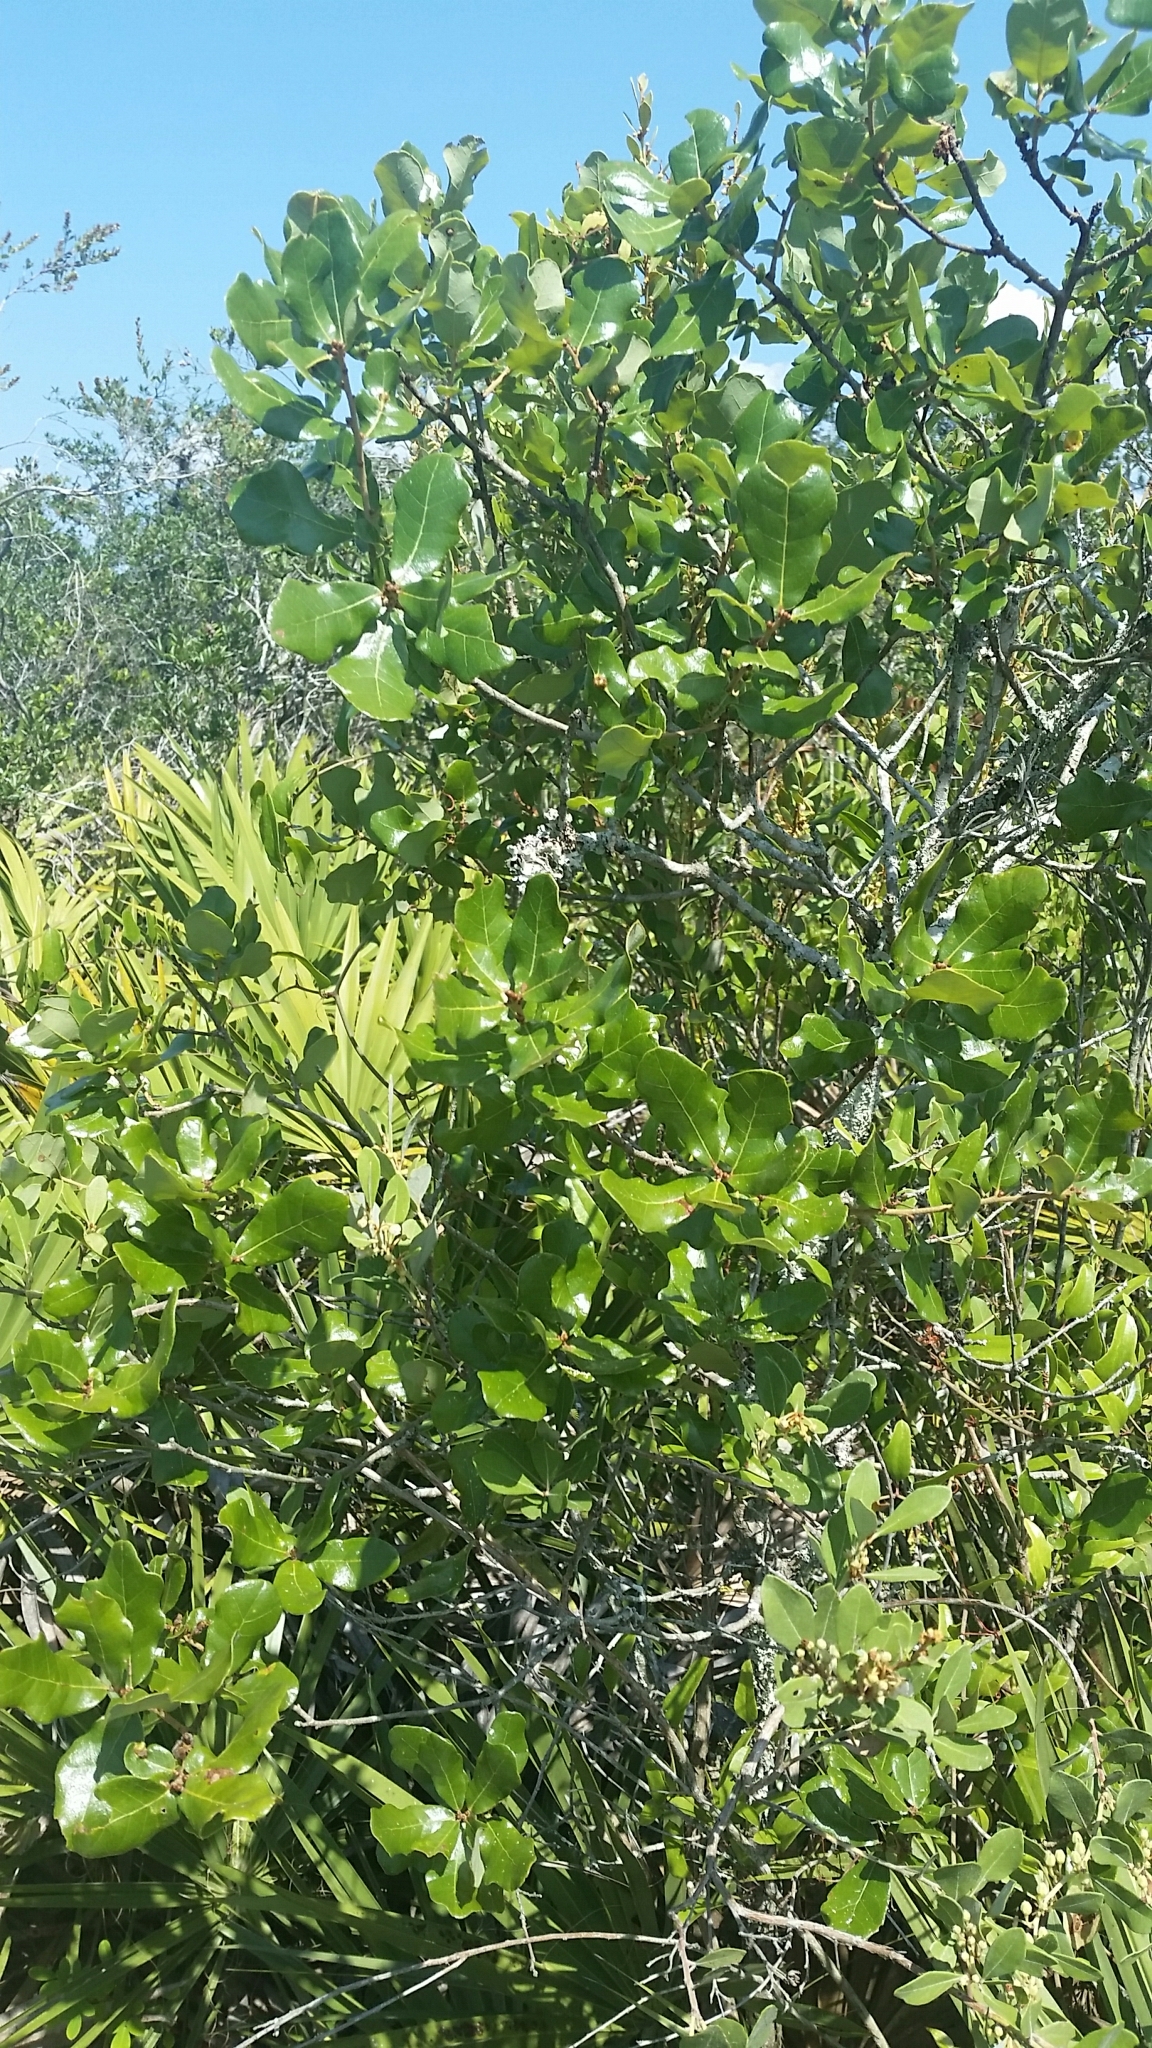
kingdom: Plantae
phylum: Tracheophyta
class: Magnoliopsida
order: Fagales
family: Fagaceae
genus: Quercus
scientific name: Quercus chapmanii
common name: Chapman oak
